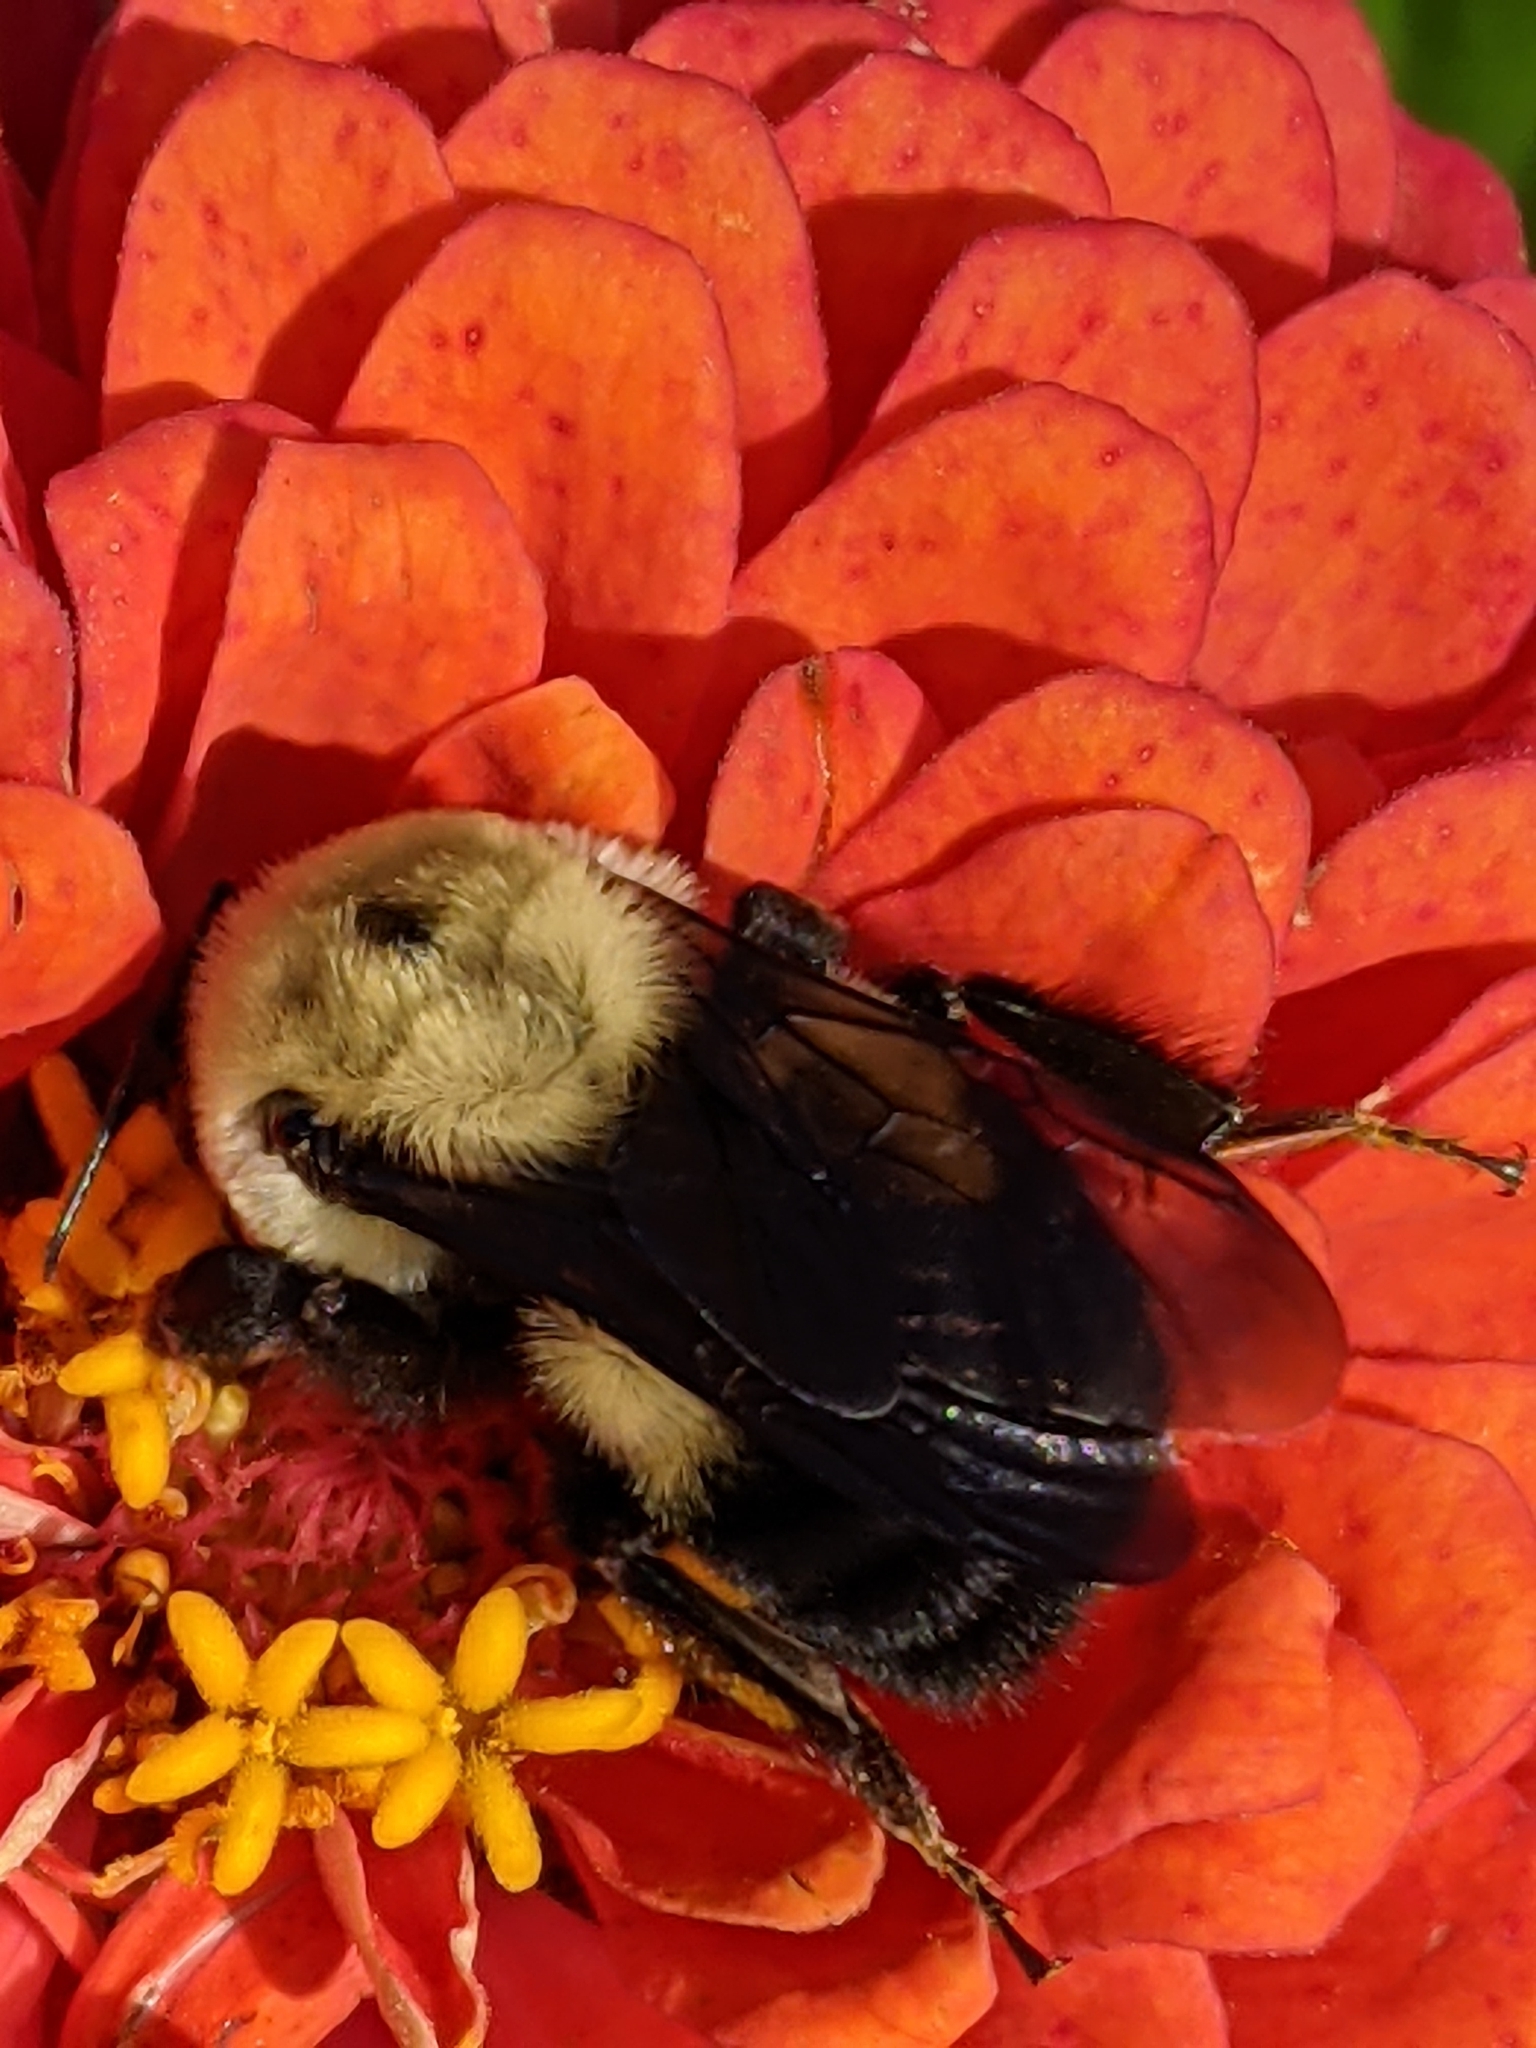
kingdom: Animalia
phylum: Arthropoda
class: Insecta
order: Hymenoptera
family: Apidae
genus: Bombus
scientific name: Bombus griseocollis
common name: Brown-belted bumble bee
